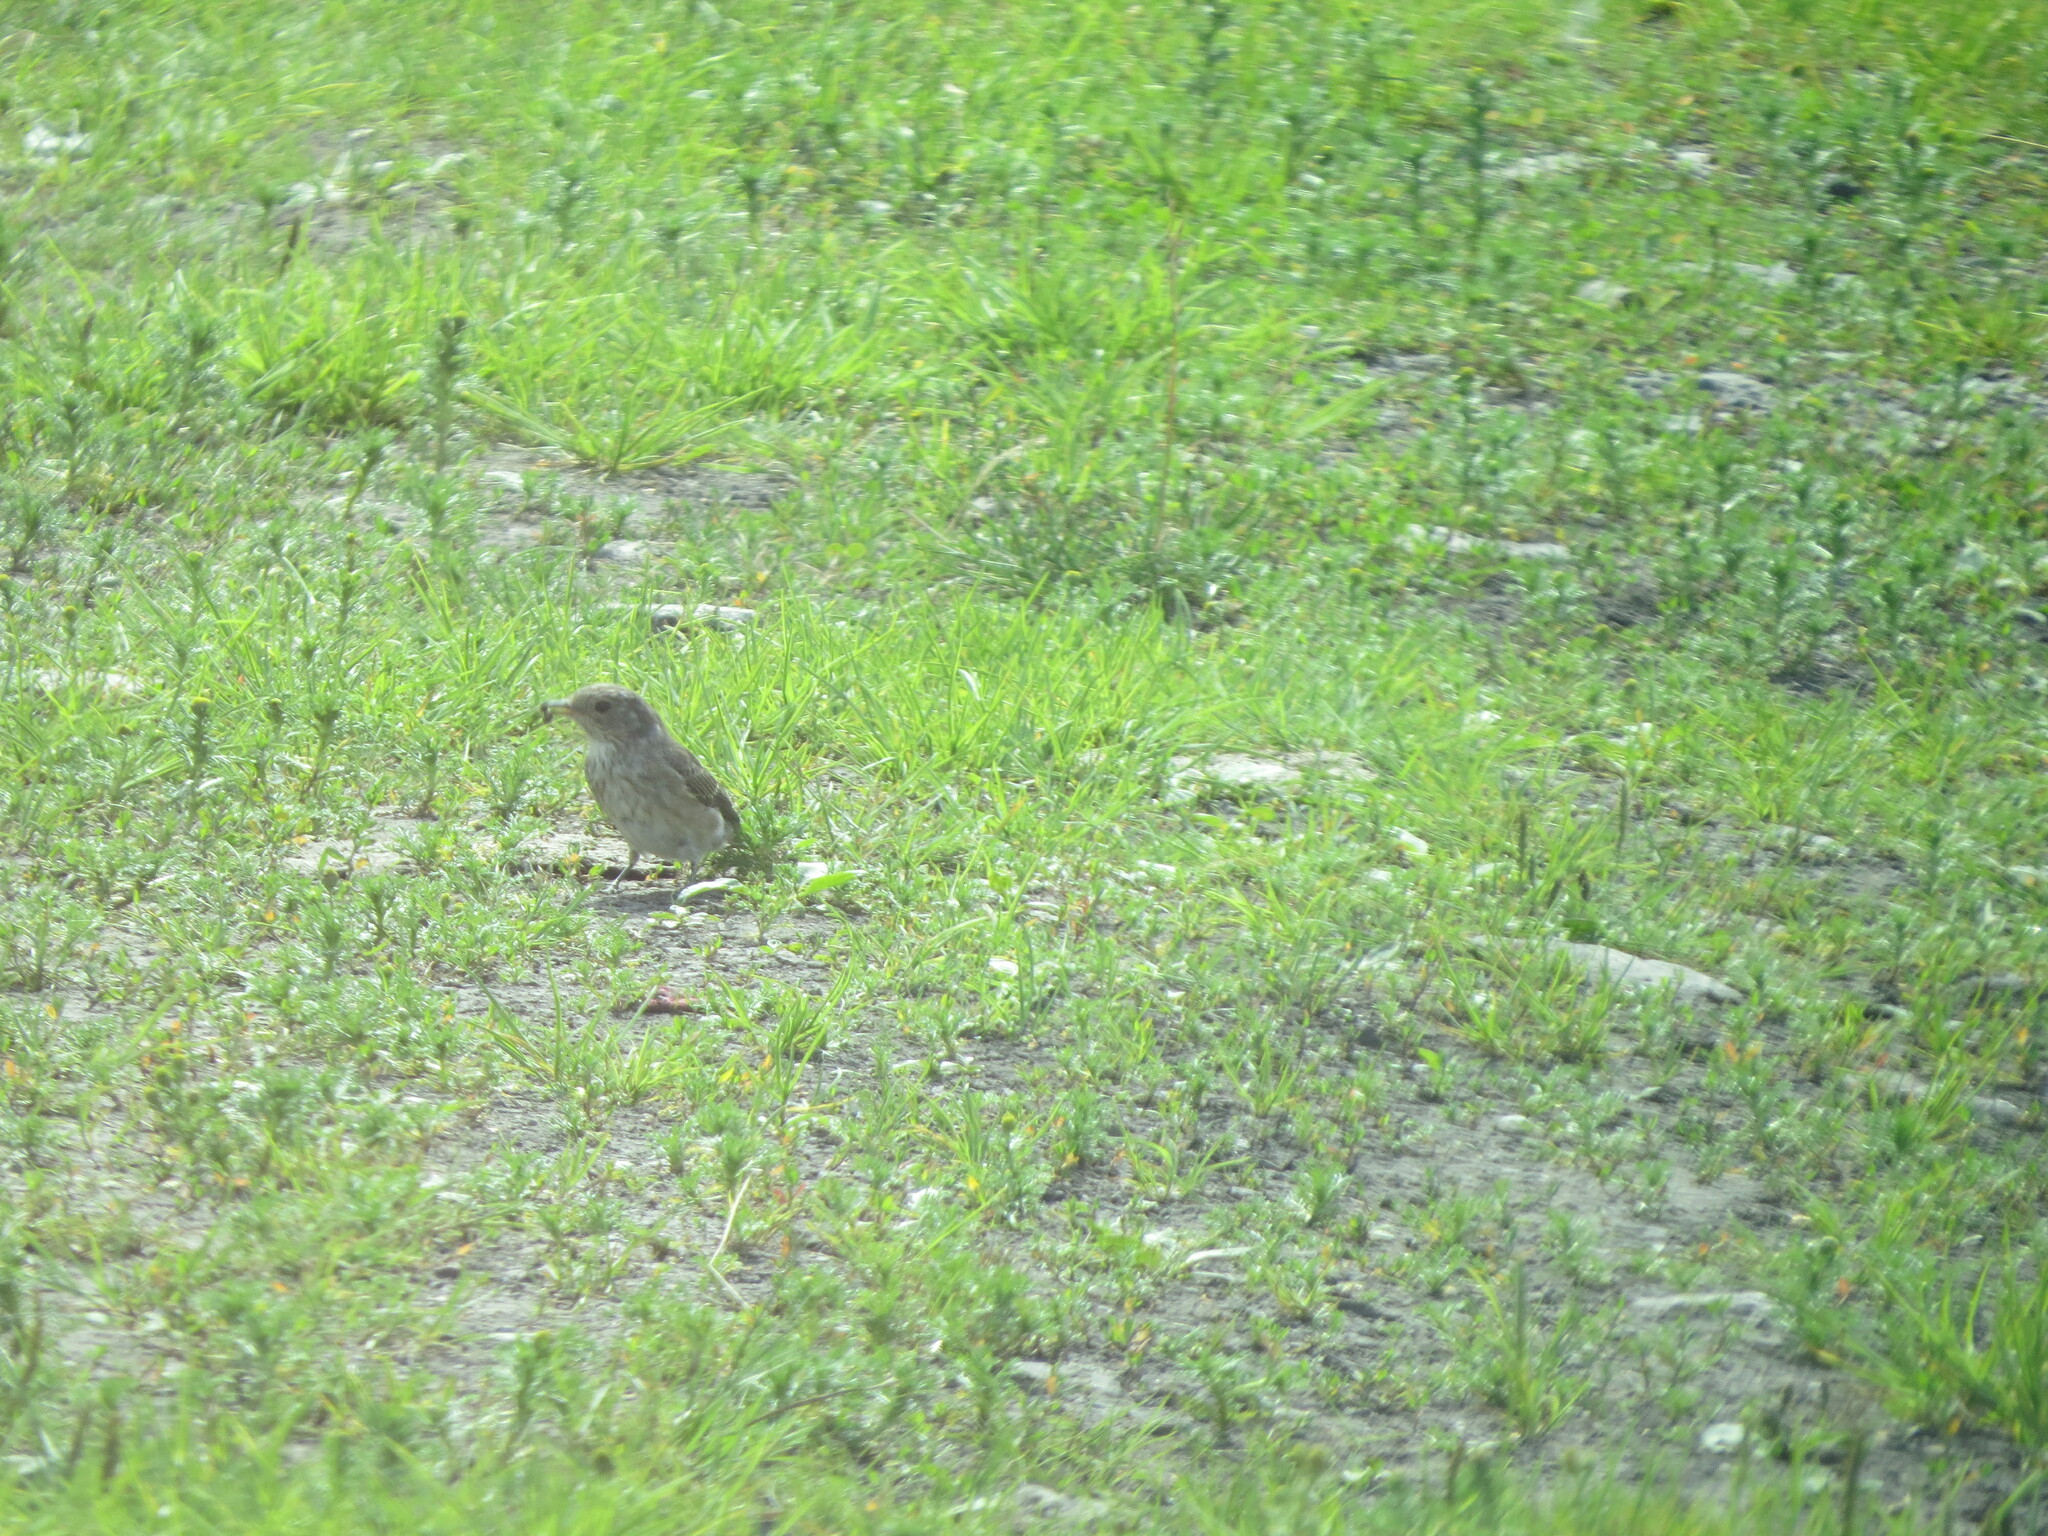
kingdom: Animalia
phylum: Chordata
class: Aves
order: Passeriformes
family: Muscicapidae
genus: Muscicapa
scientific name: Muscicapa striata
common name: Spotted flycatcher
